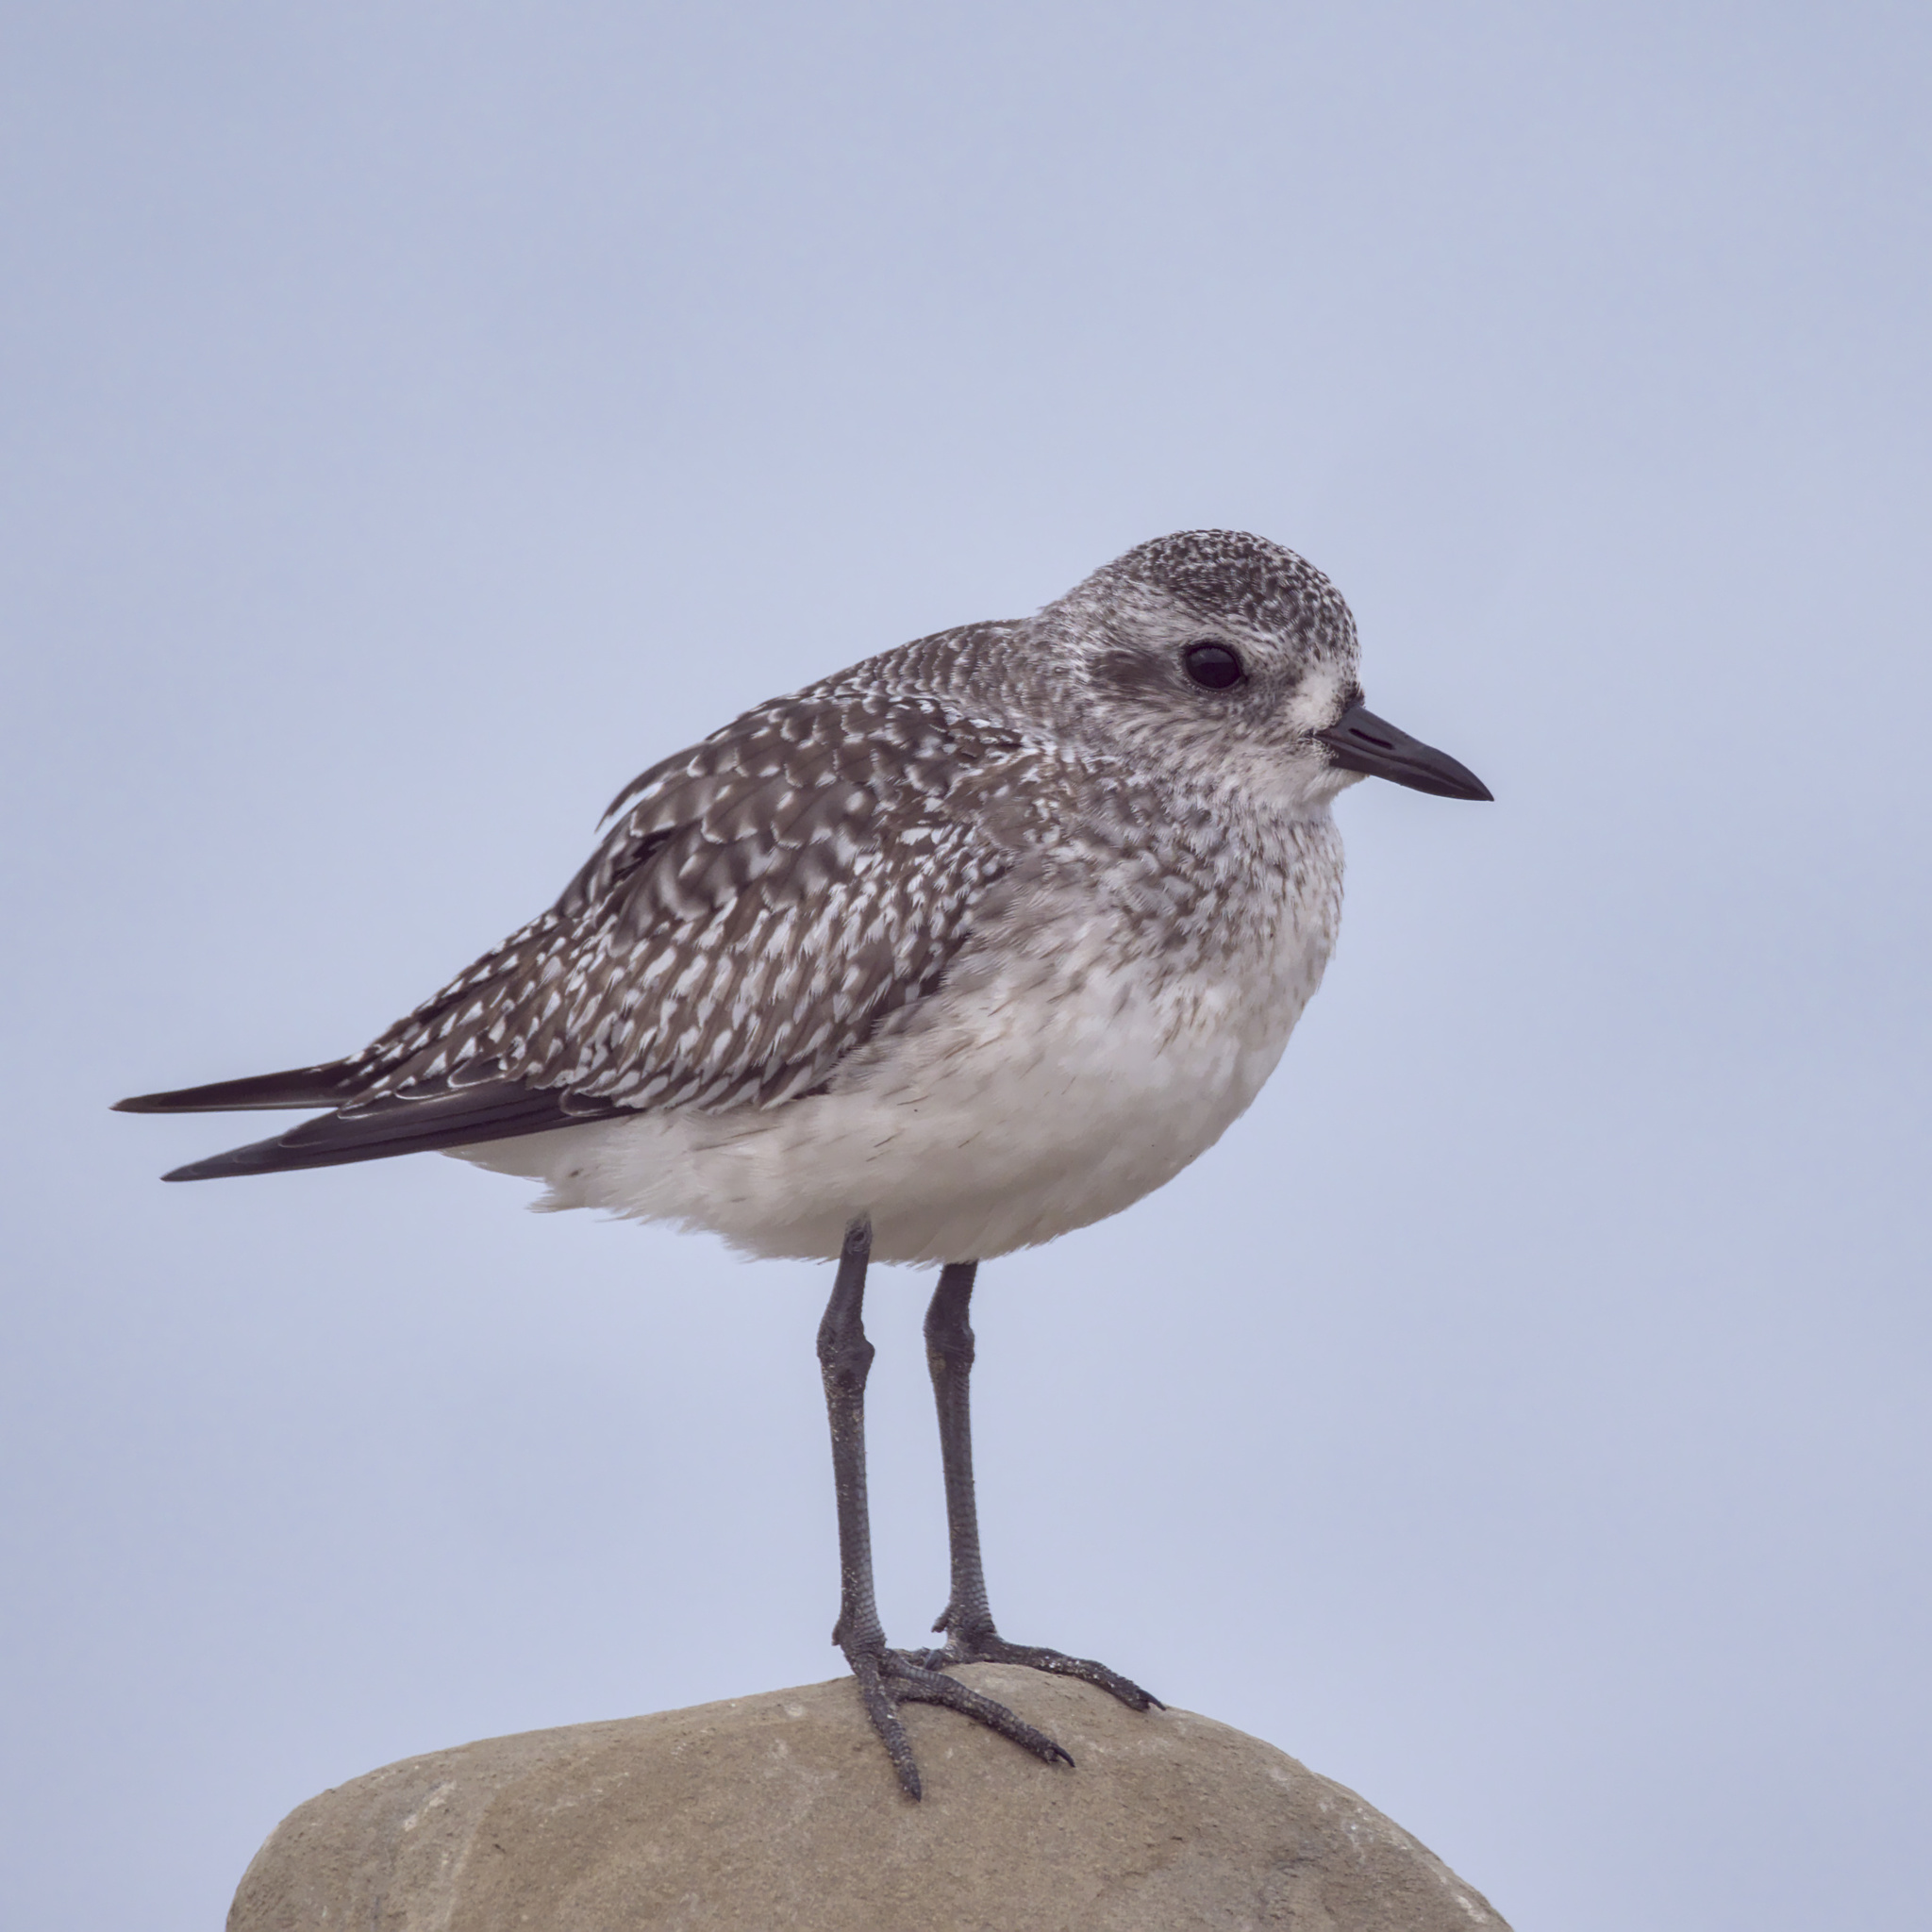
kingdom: Animalia
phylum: Chordata
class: Aves
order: Charadriiformes
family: Charadriidae
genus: Pluvialis
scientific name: Pluvialis squatarola
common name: Grey plover
